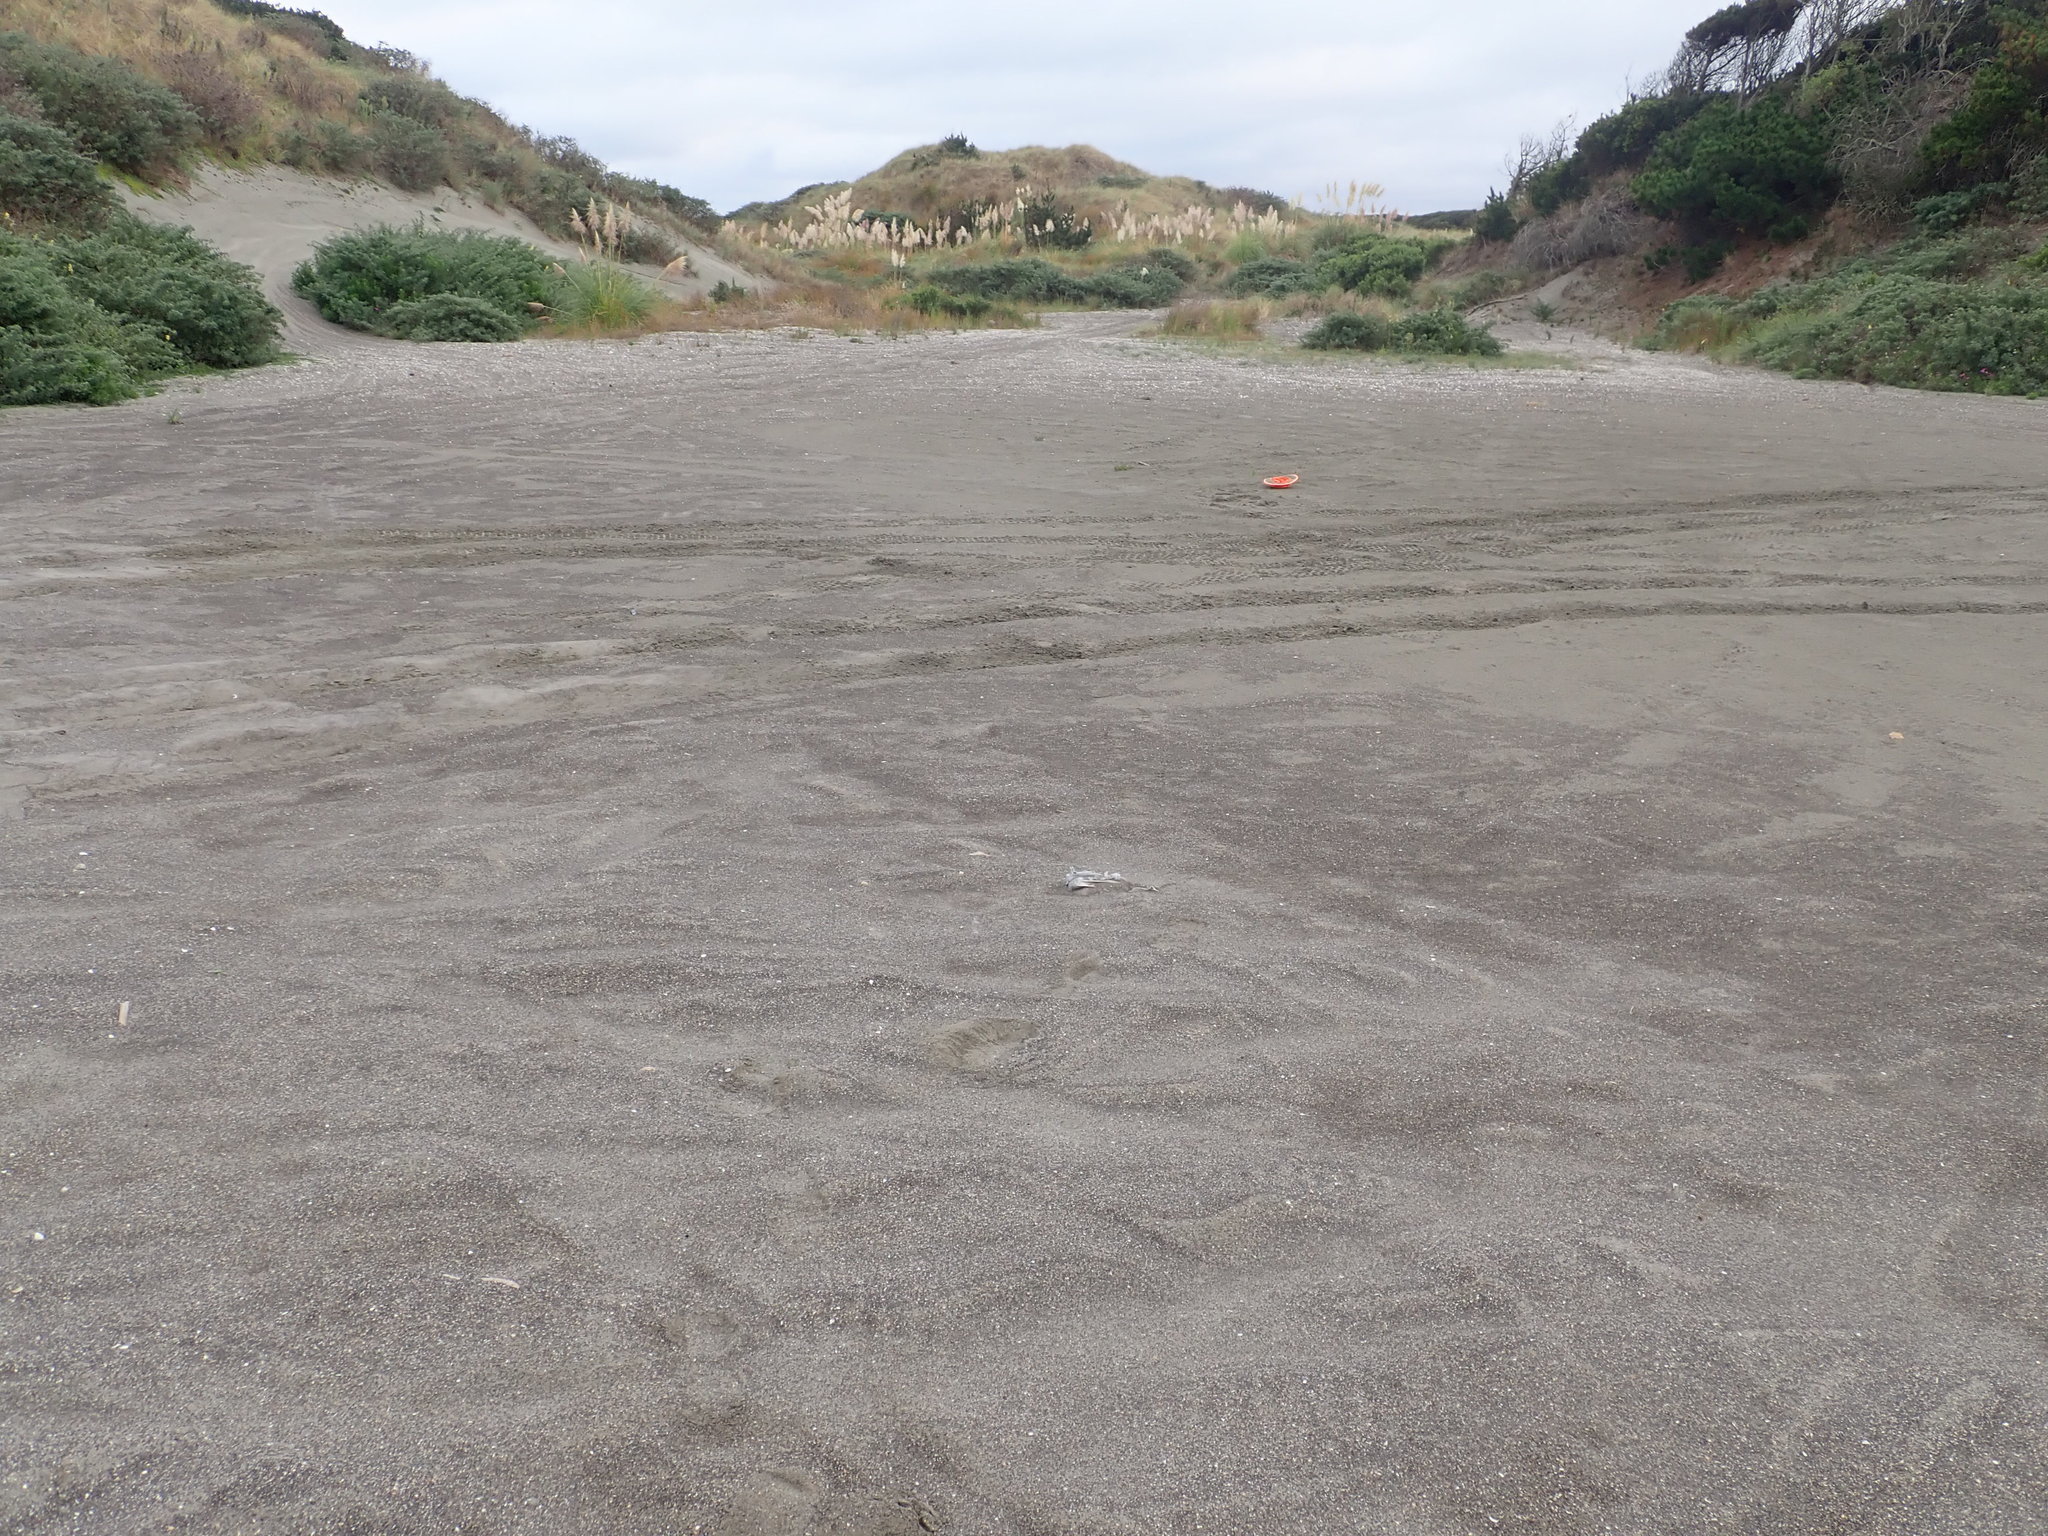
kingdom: Plantae
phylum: Tracheophyta
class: Magnoliopsida
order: Lamiales
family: Scrophulariaceae
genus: Limosella
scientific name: Limosella australis
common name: Welsh mudwort
